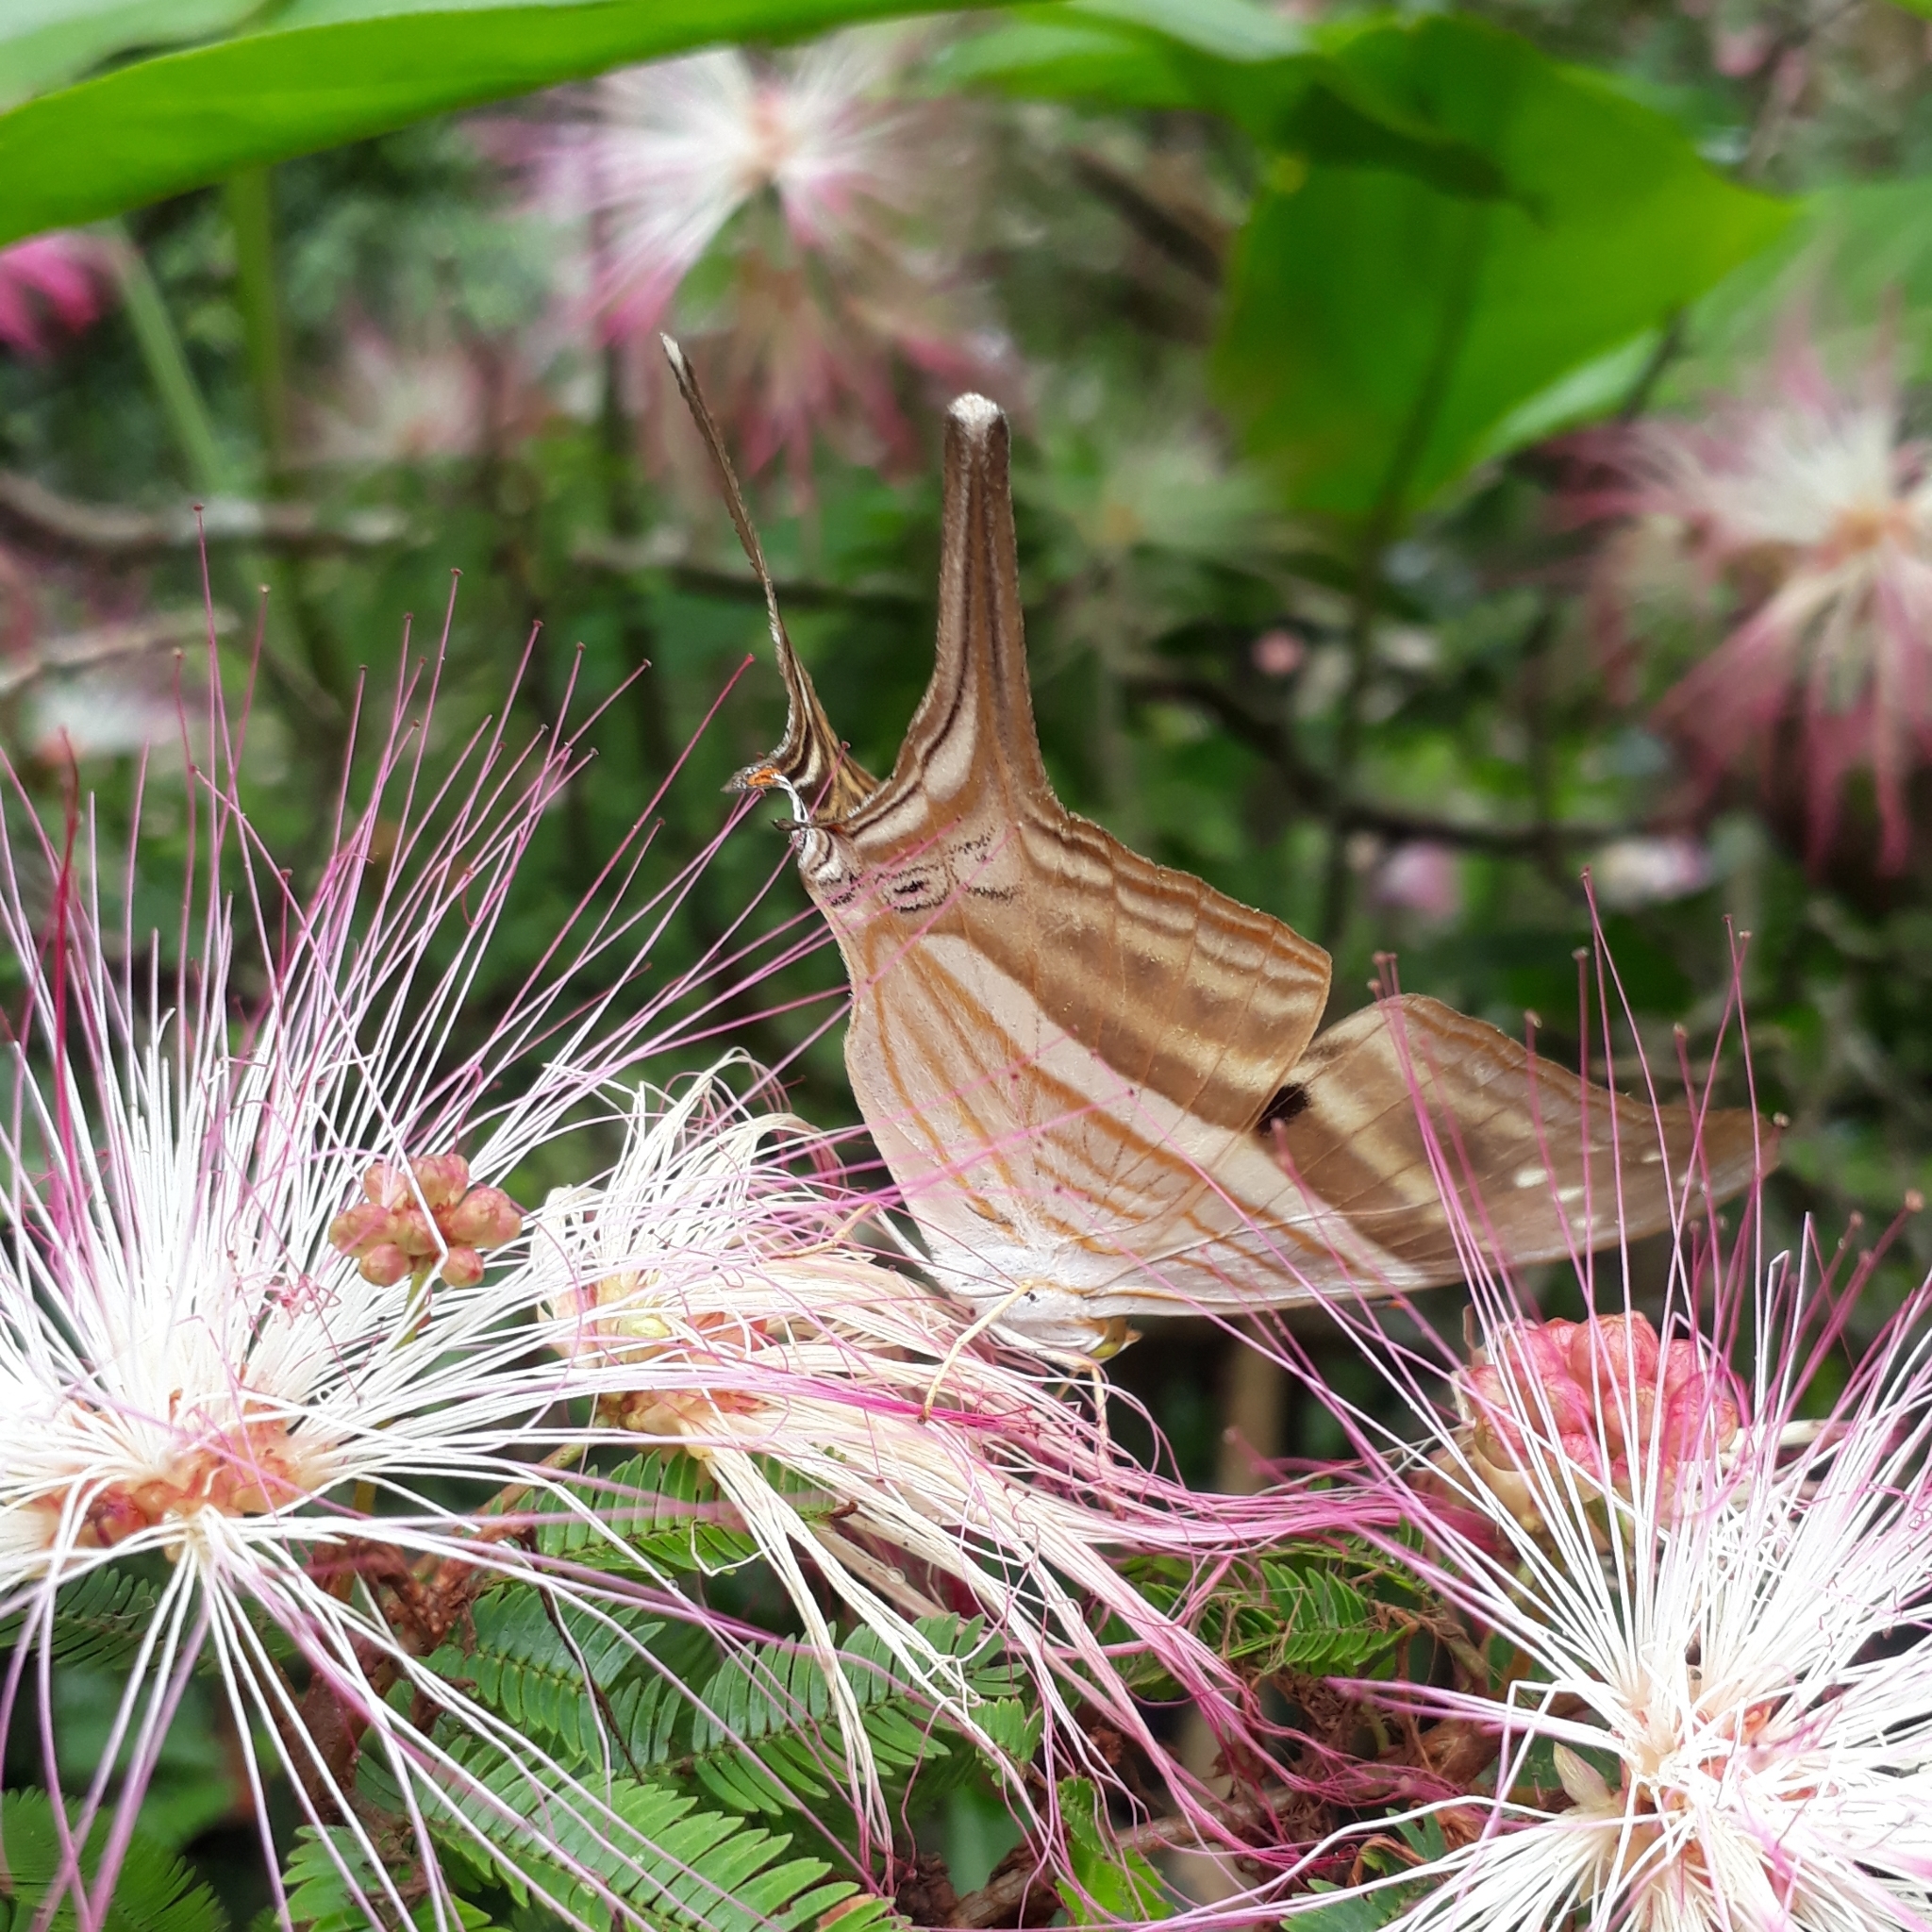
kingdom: Animalia
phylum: Arthropoda
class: Insecta
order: Lepidoptera
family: Nymphalidae
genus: Marpesia
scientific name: Marpesia chiron
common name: Many-banded daggerwing
